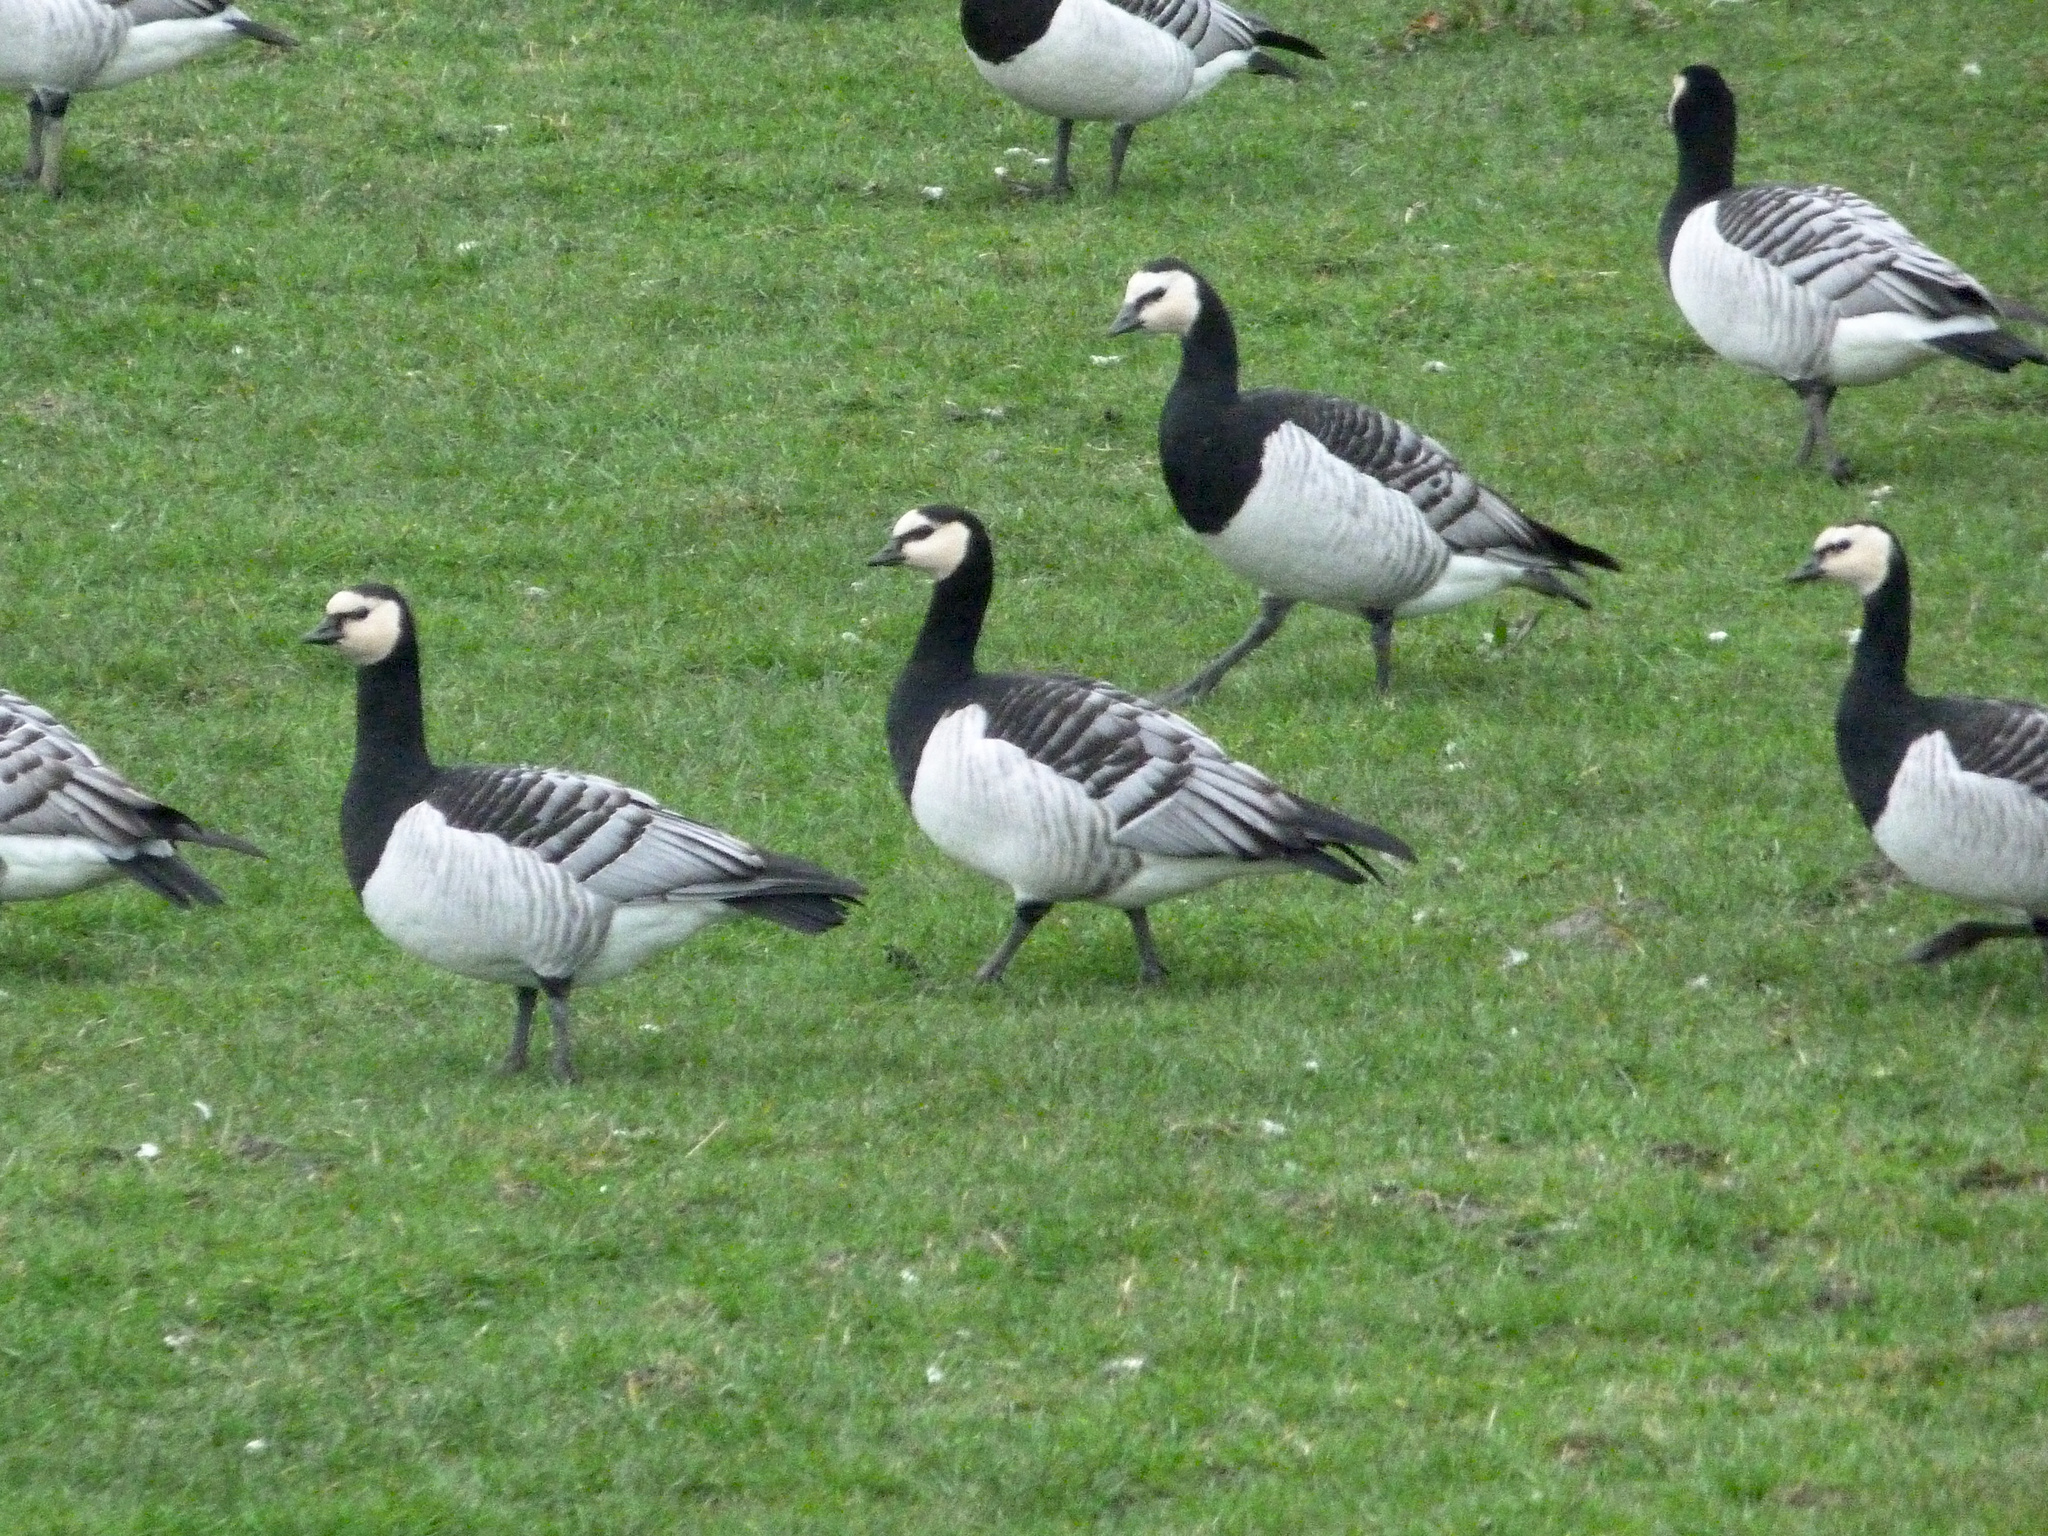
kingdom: Animalia
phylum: Chordata
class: Aves
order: Anseriformes
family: Anatidae
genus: Branta
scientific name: Branta leucopsis
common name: Barnacle goose
